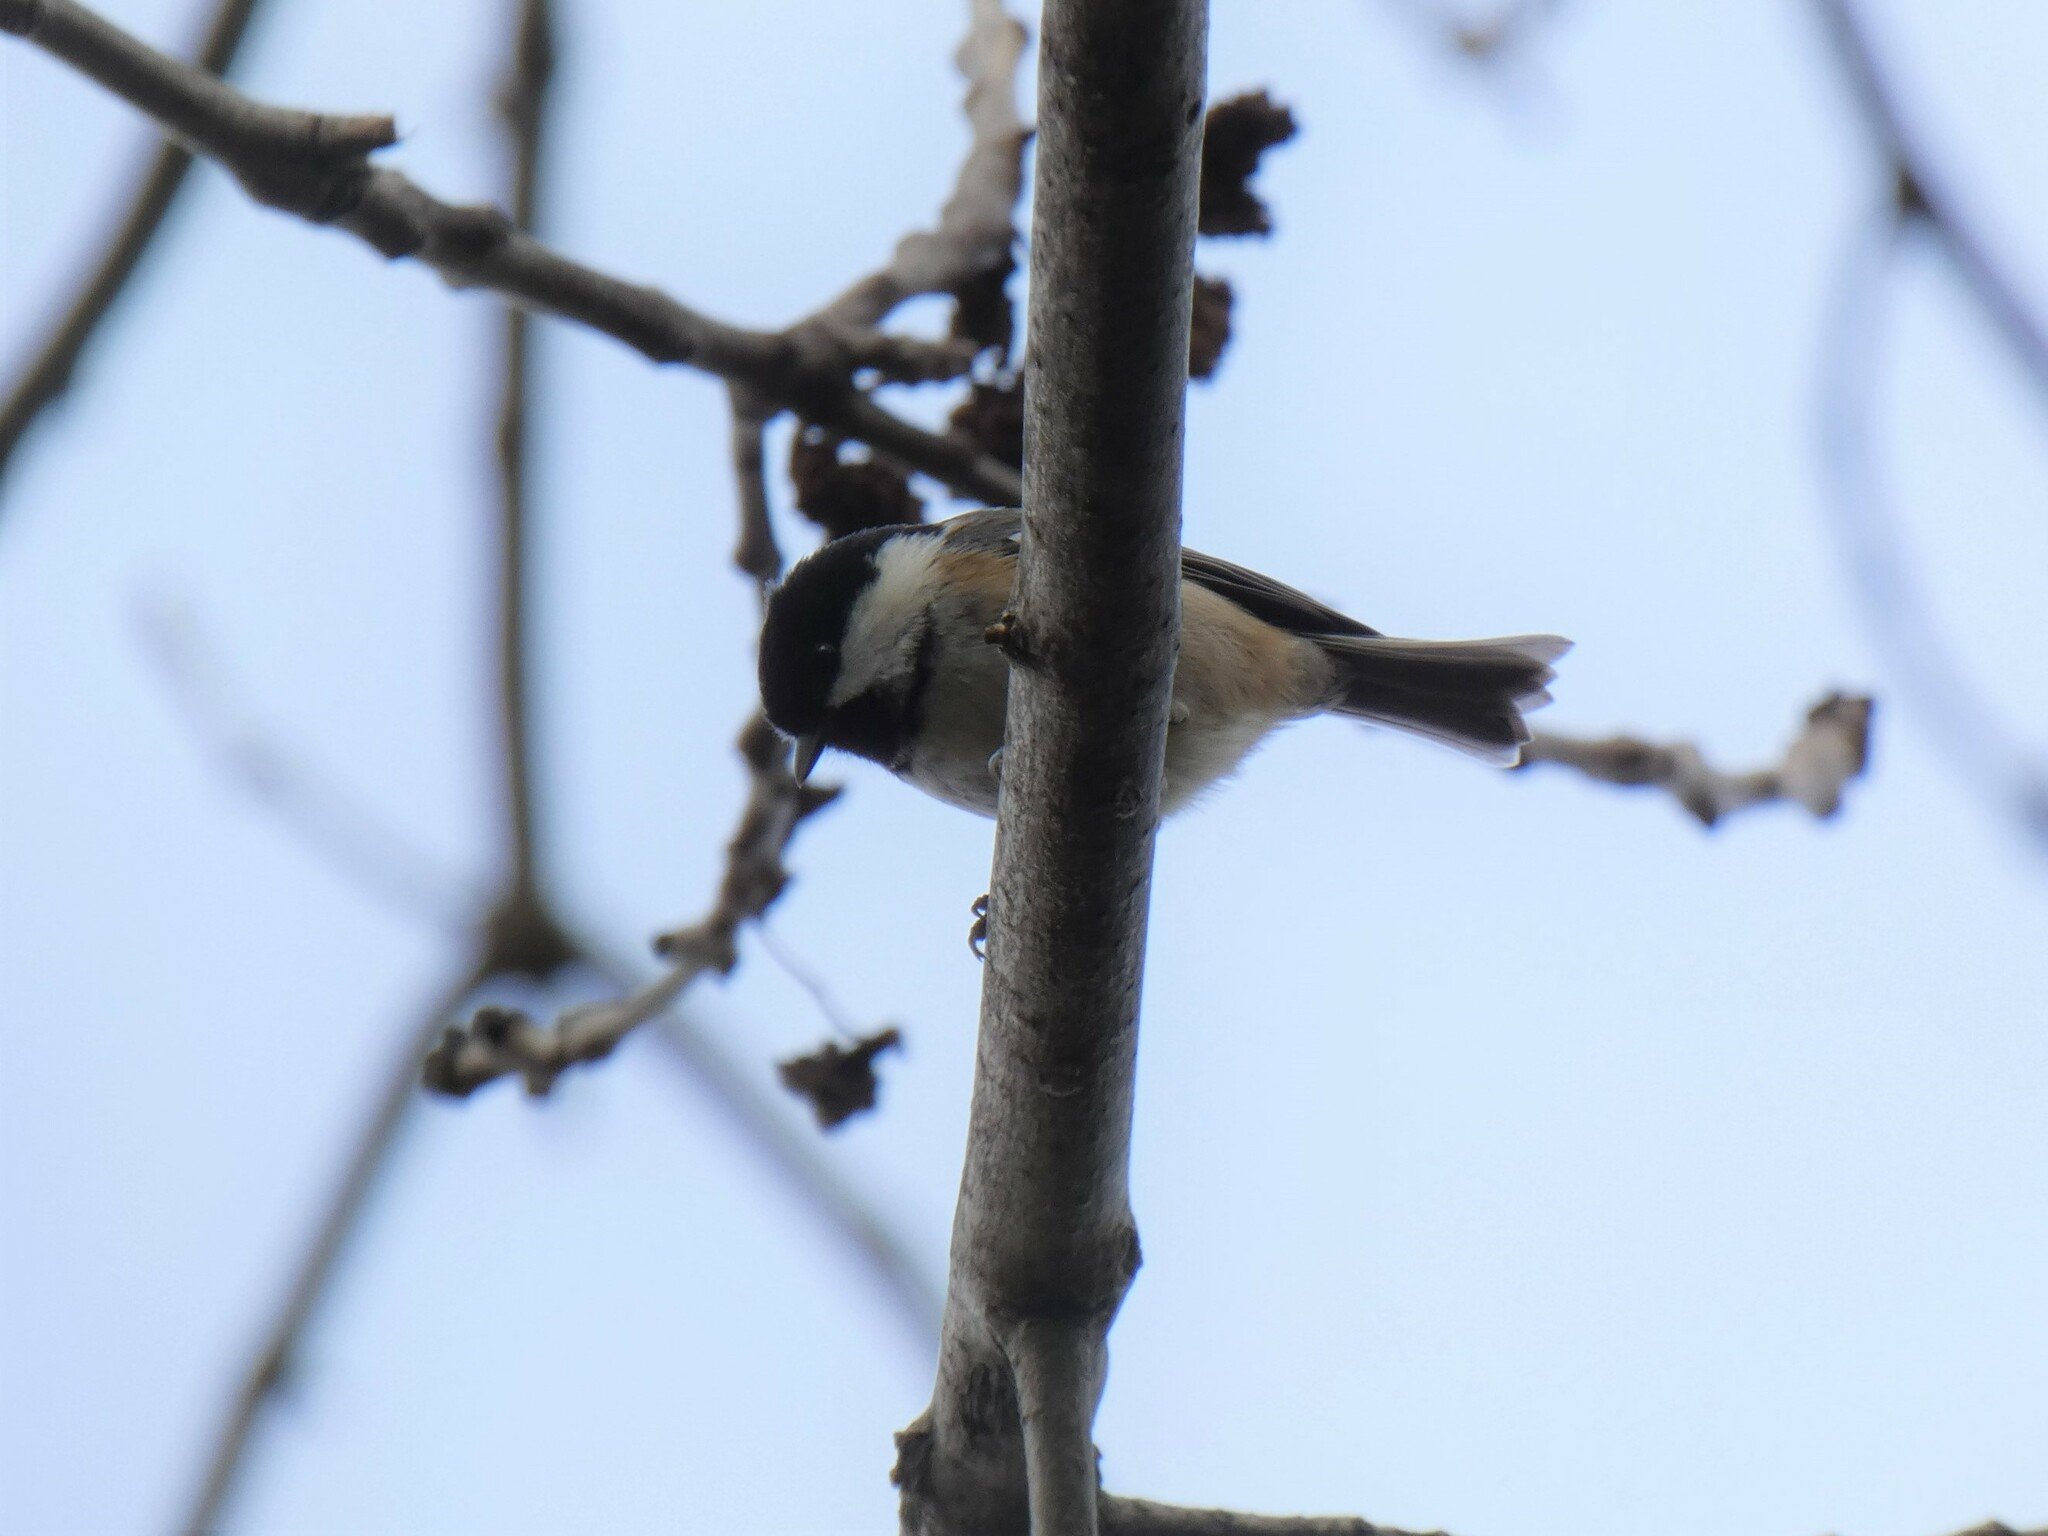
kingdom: Animalia
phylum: Chordata
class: Aves
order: Passeriformes
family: Paridae
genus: Periparus
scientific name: Periparus ater
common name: Coal tit
